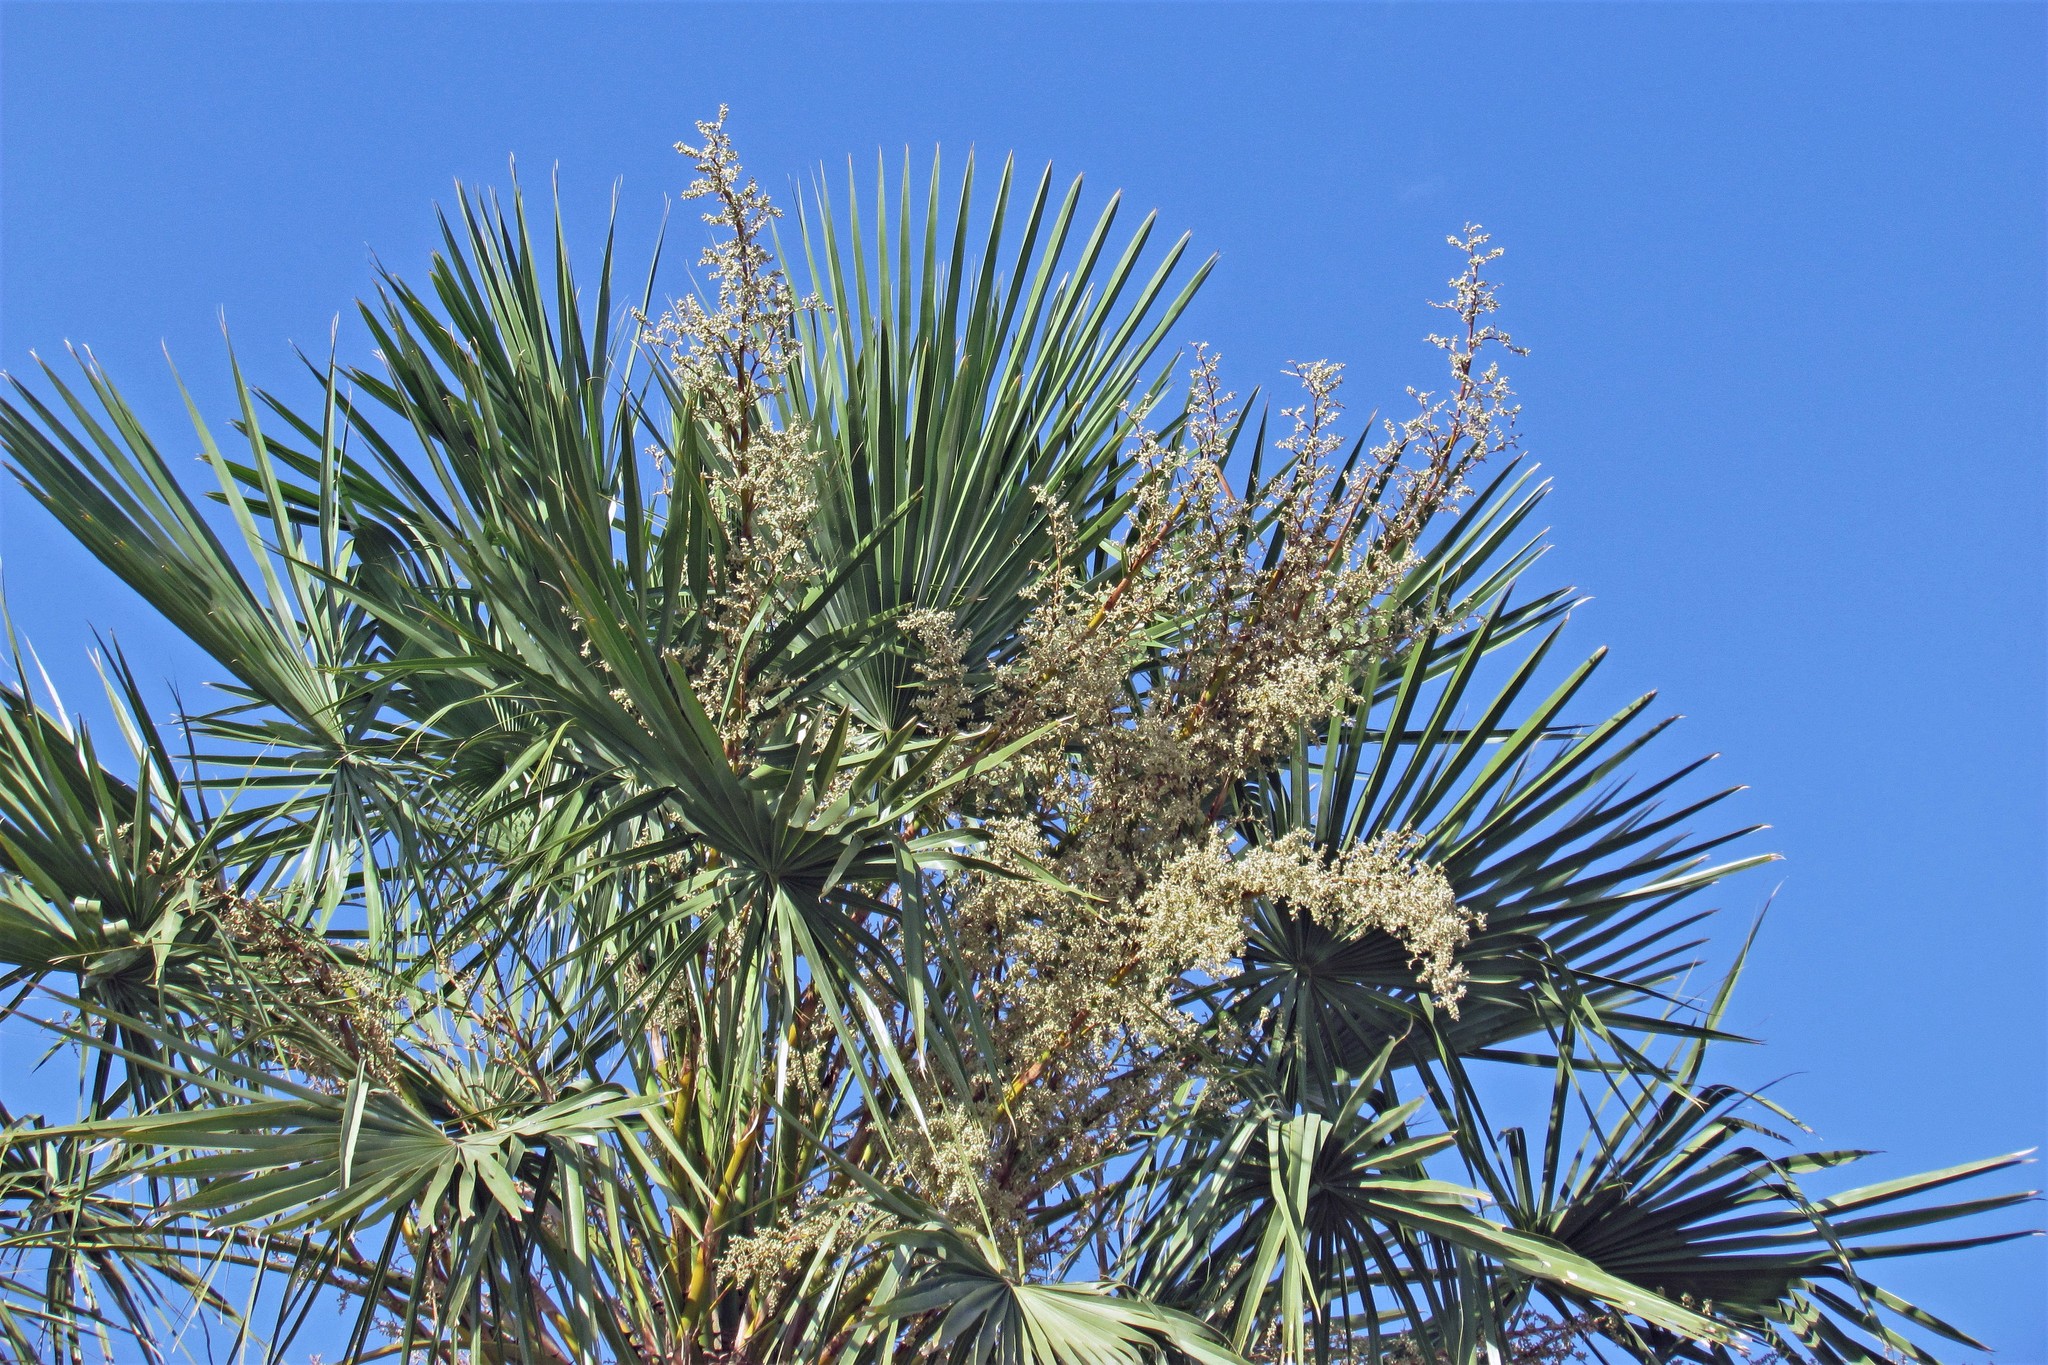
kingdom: Plantae
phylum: Tracheophyta
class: Liliopsida
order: Arecales
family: Arecaceae
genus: Copernicia
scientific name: Copernicia alba
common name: Caranday palm
